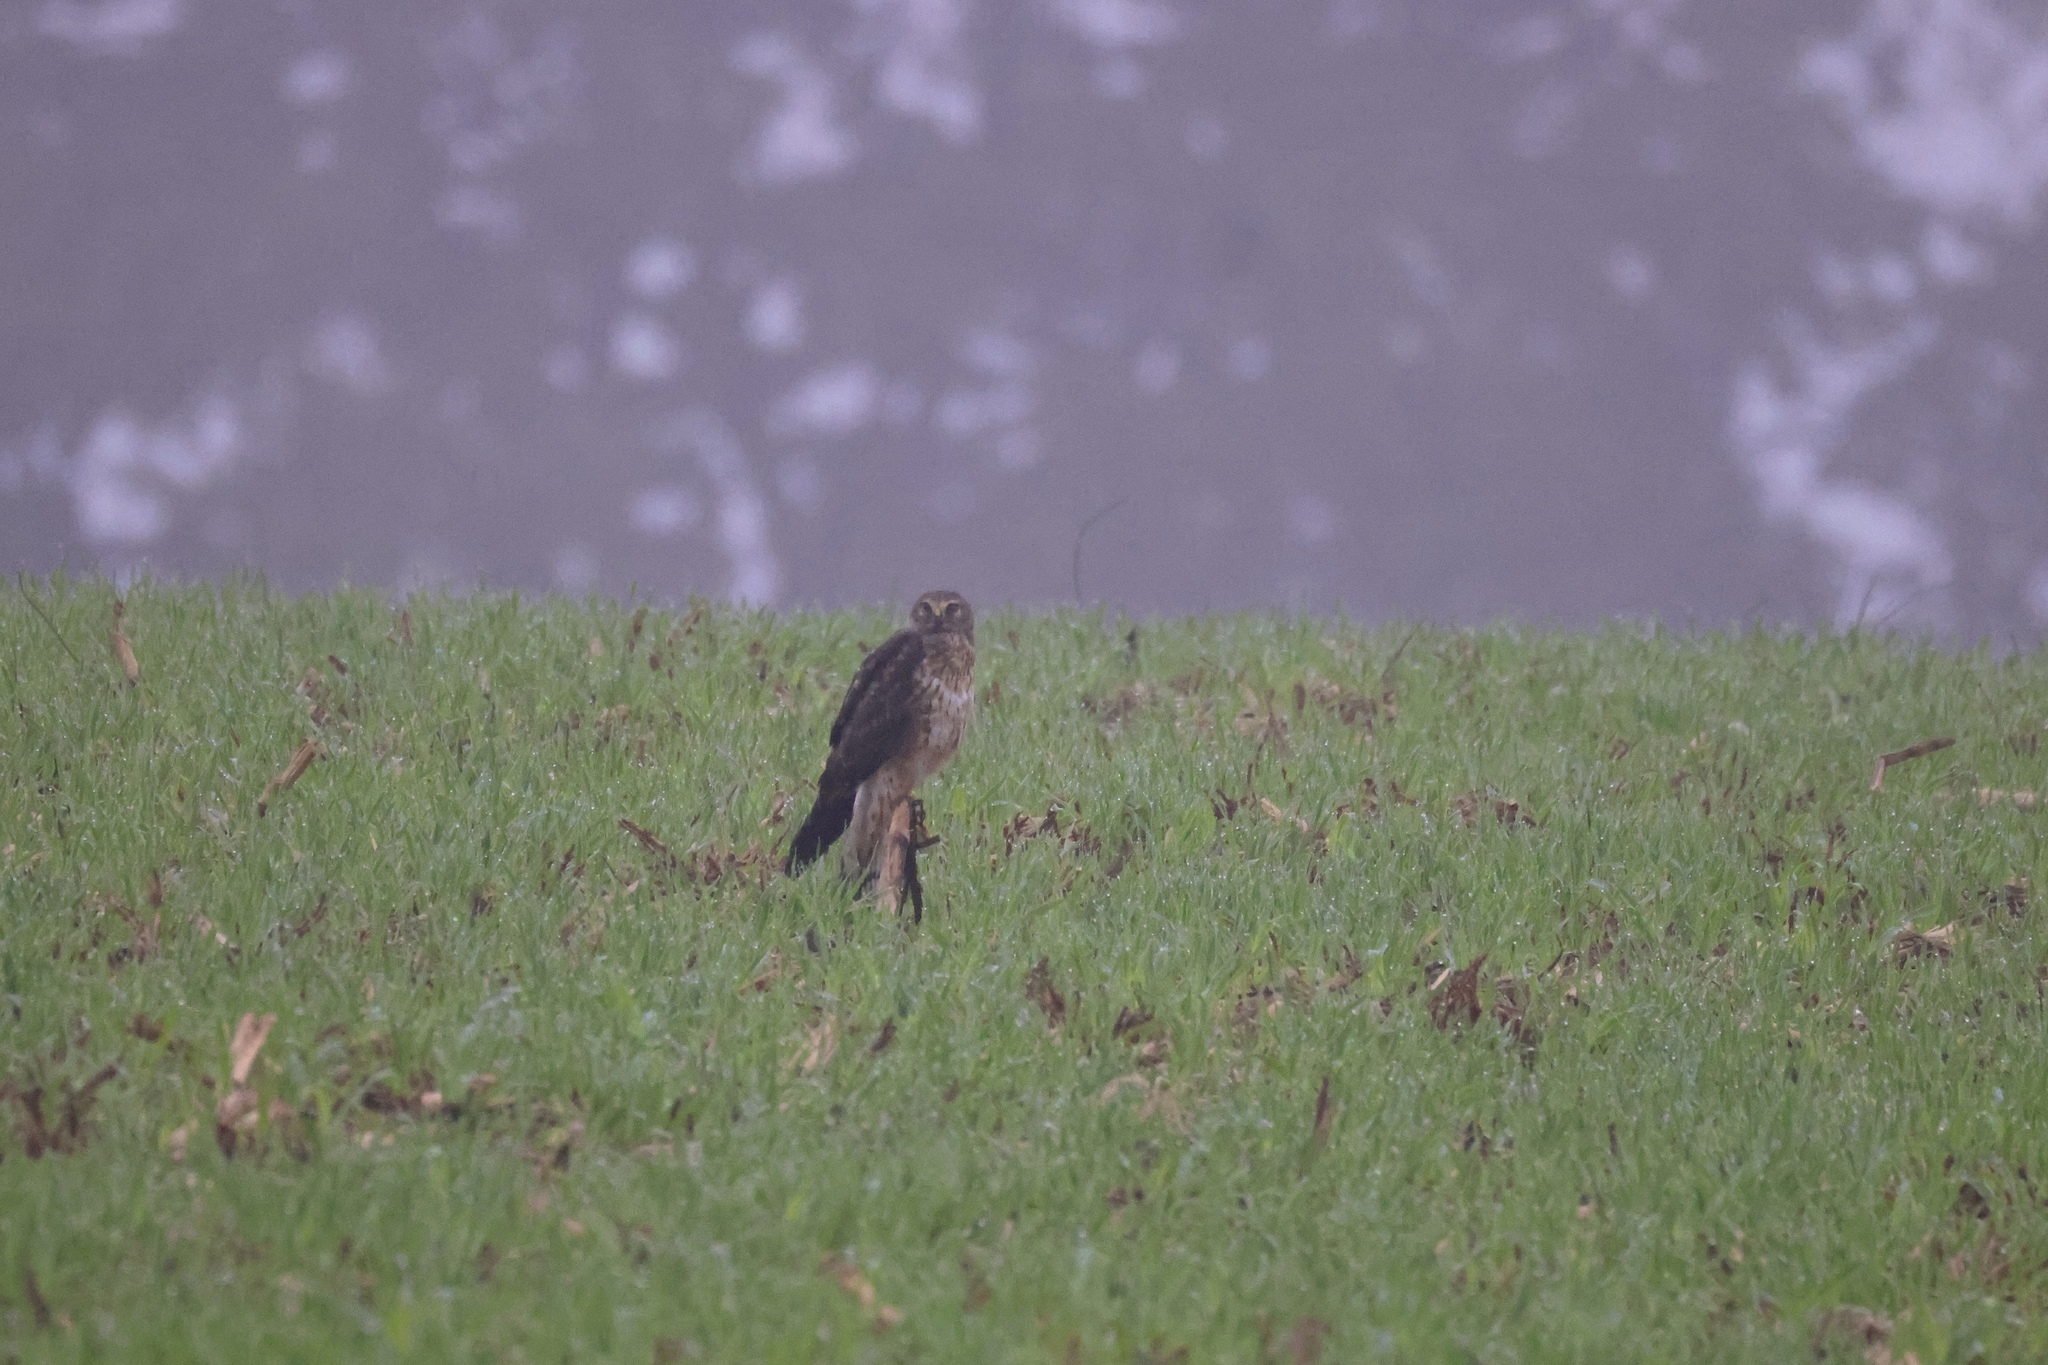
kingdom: Animalia
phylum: Chordata
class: Aves
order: Accipitriformes
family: Accipitridae
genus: Circus
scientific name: Circus cyaneus
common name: Hen harrier
